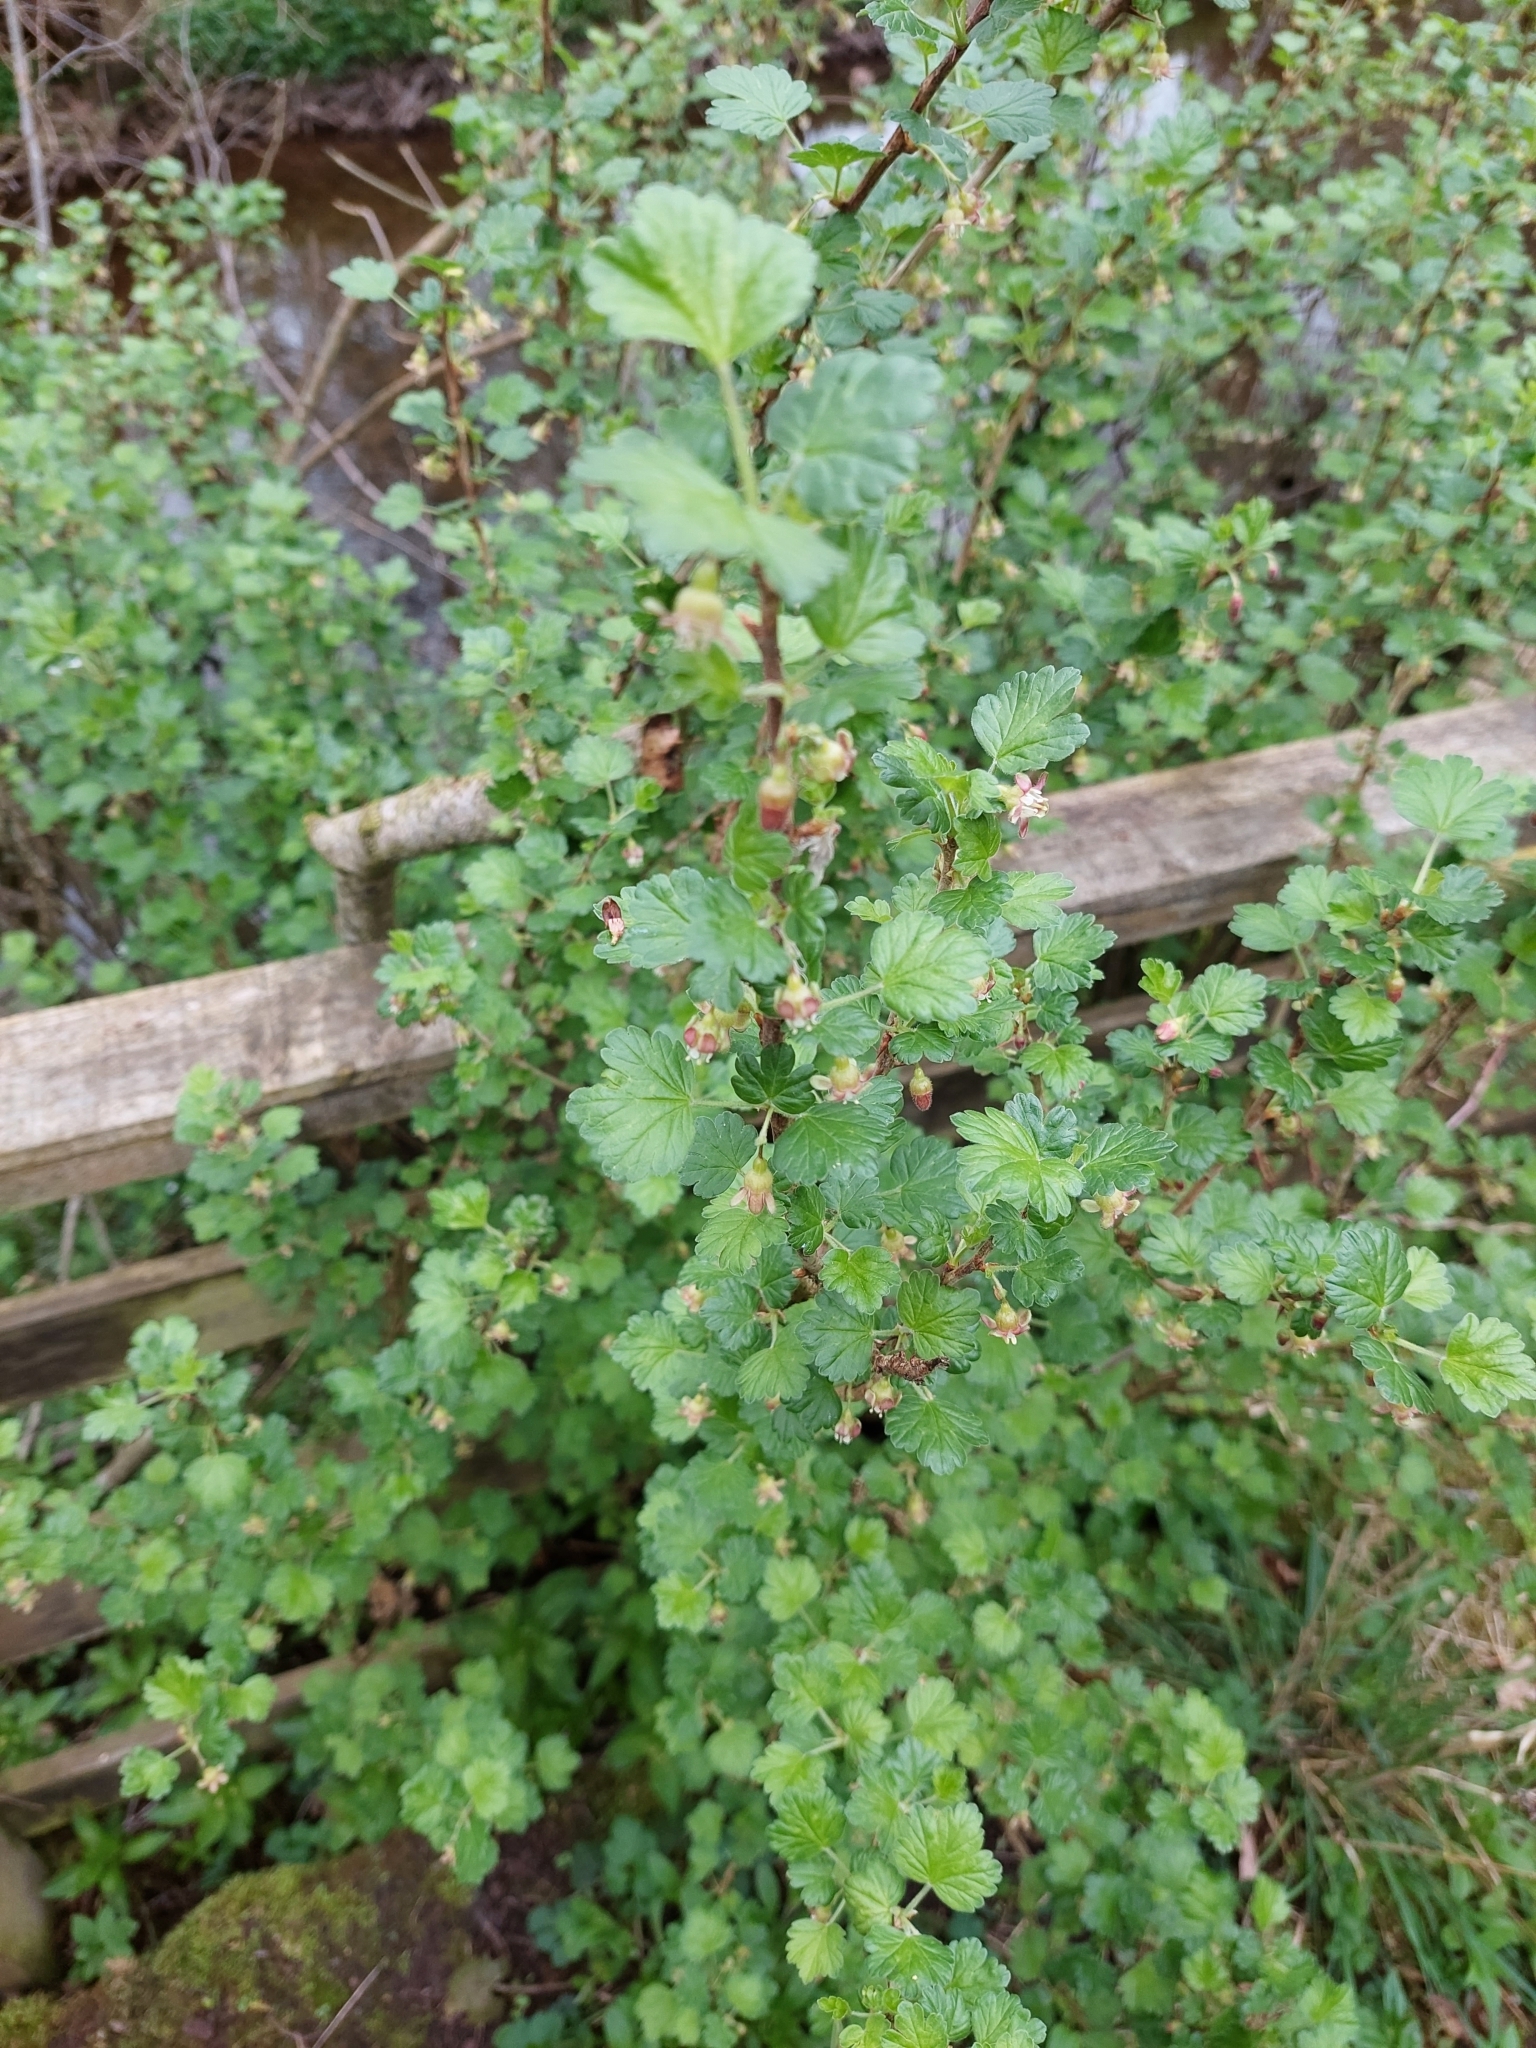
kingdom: Plantae
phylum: Tracheophyta
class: Magnoliopsida
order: Saxifragales
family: Grossulariaceae
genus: Ribes
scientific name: Ribes uva-crispa
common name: Gooseberry
